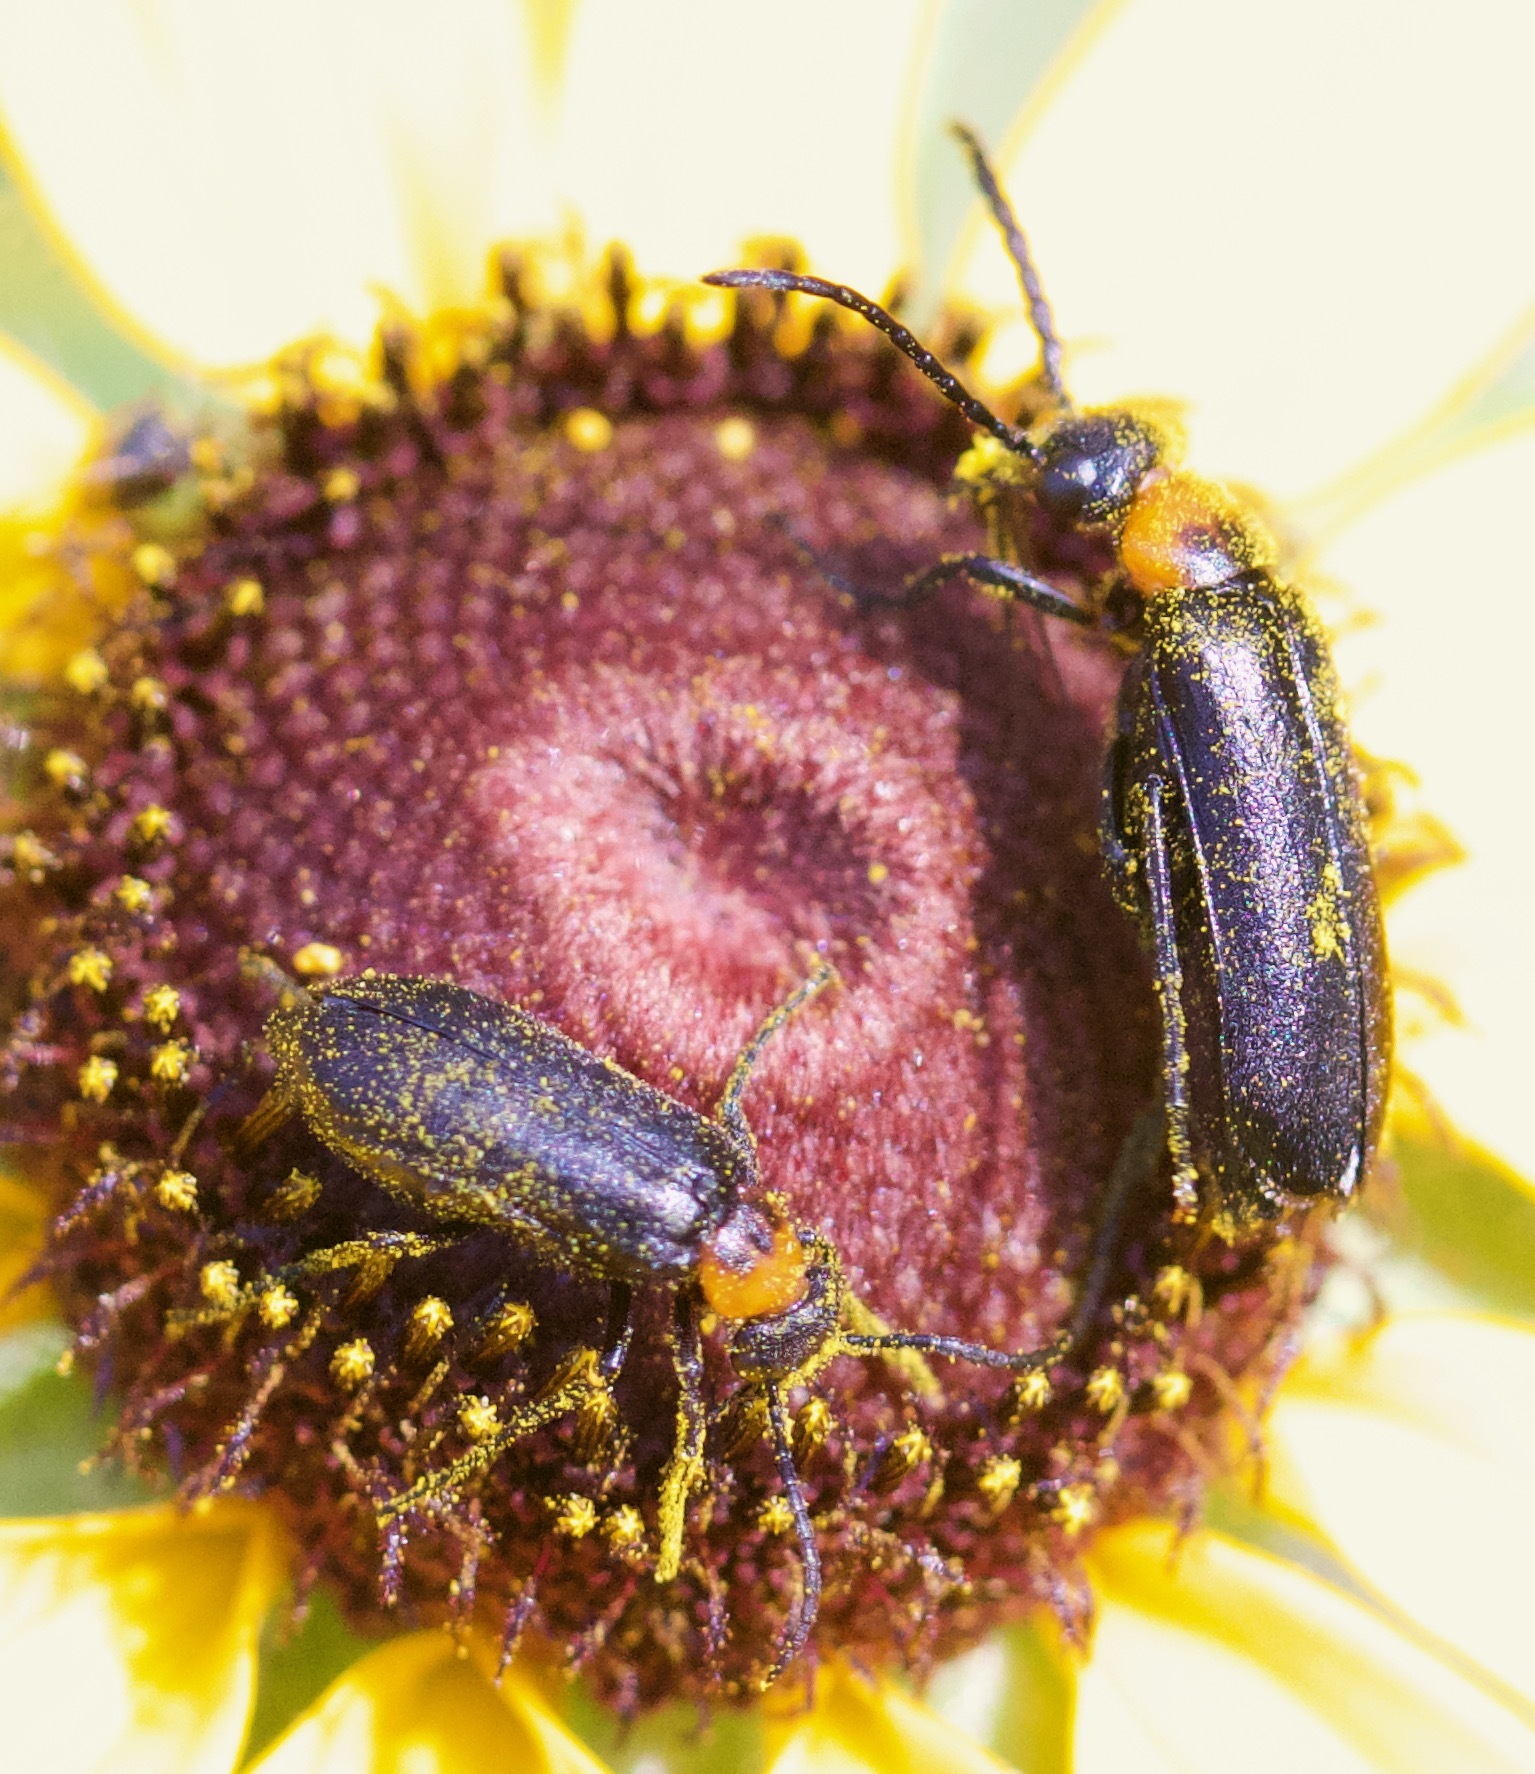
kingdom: Animalia
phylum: Arthropoda
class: Insecta
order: Coleoptera
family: Meloidae
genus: Nemognatha
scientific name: Nemognatha nemorensis
